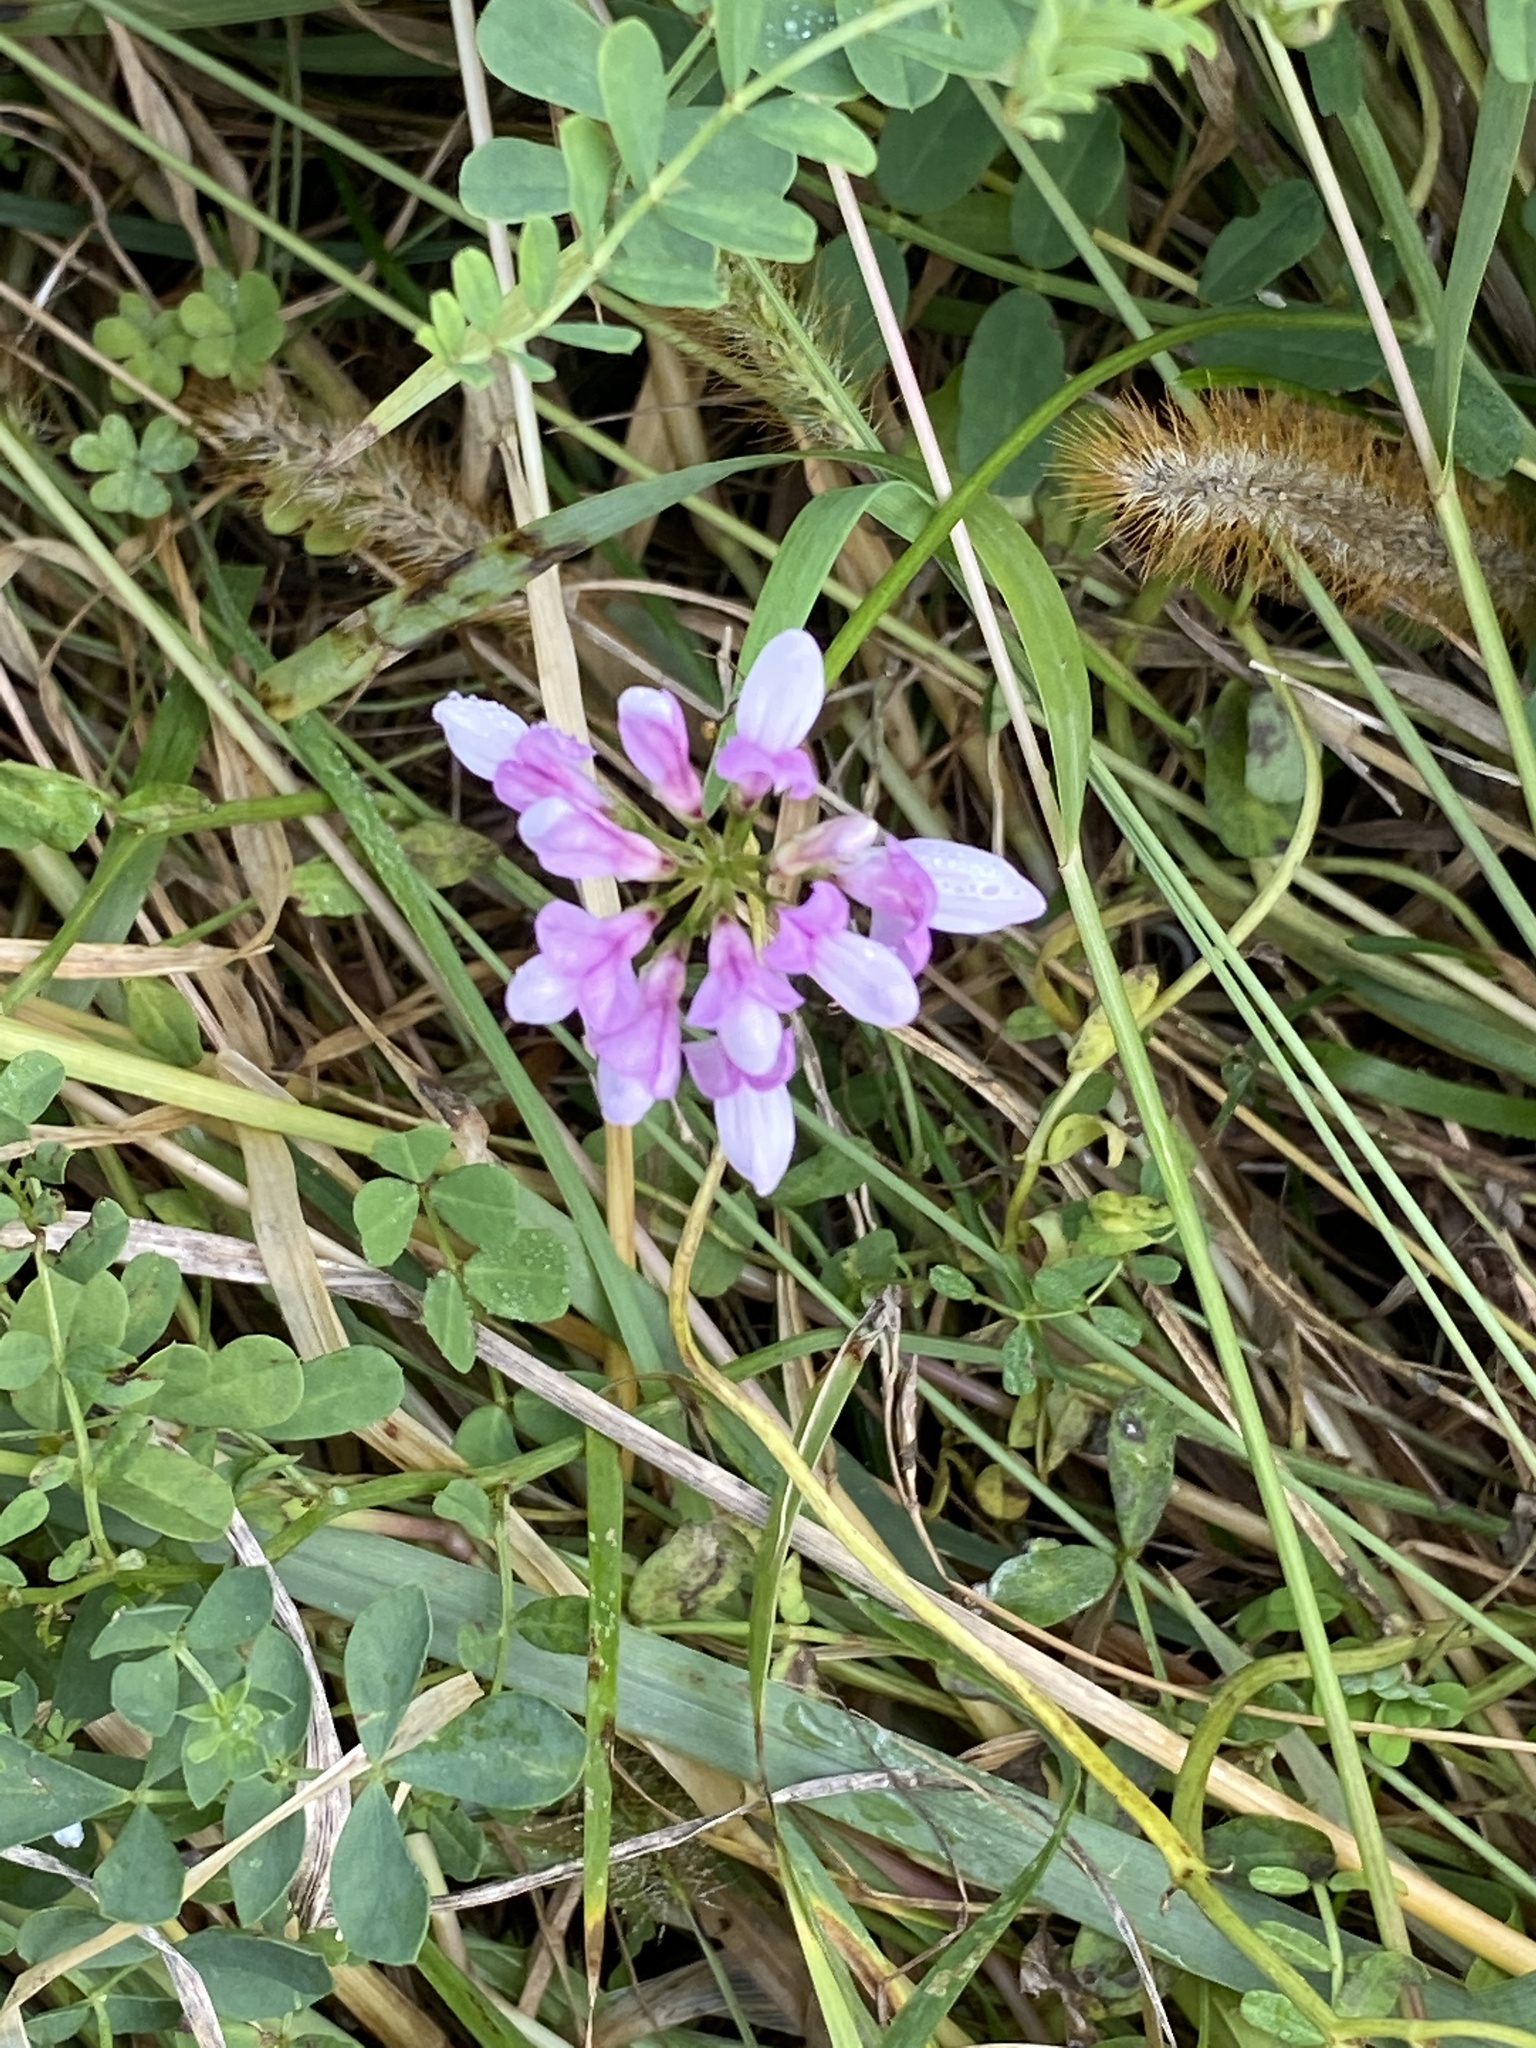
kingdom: Plantae
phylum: Tracheophyta
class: Magnoliopsida
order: Fabales
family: Fabaceae
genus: Coronilla
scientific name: Coronilla varia
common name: Crownvetch
